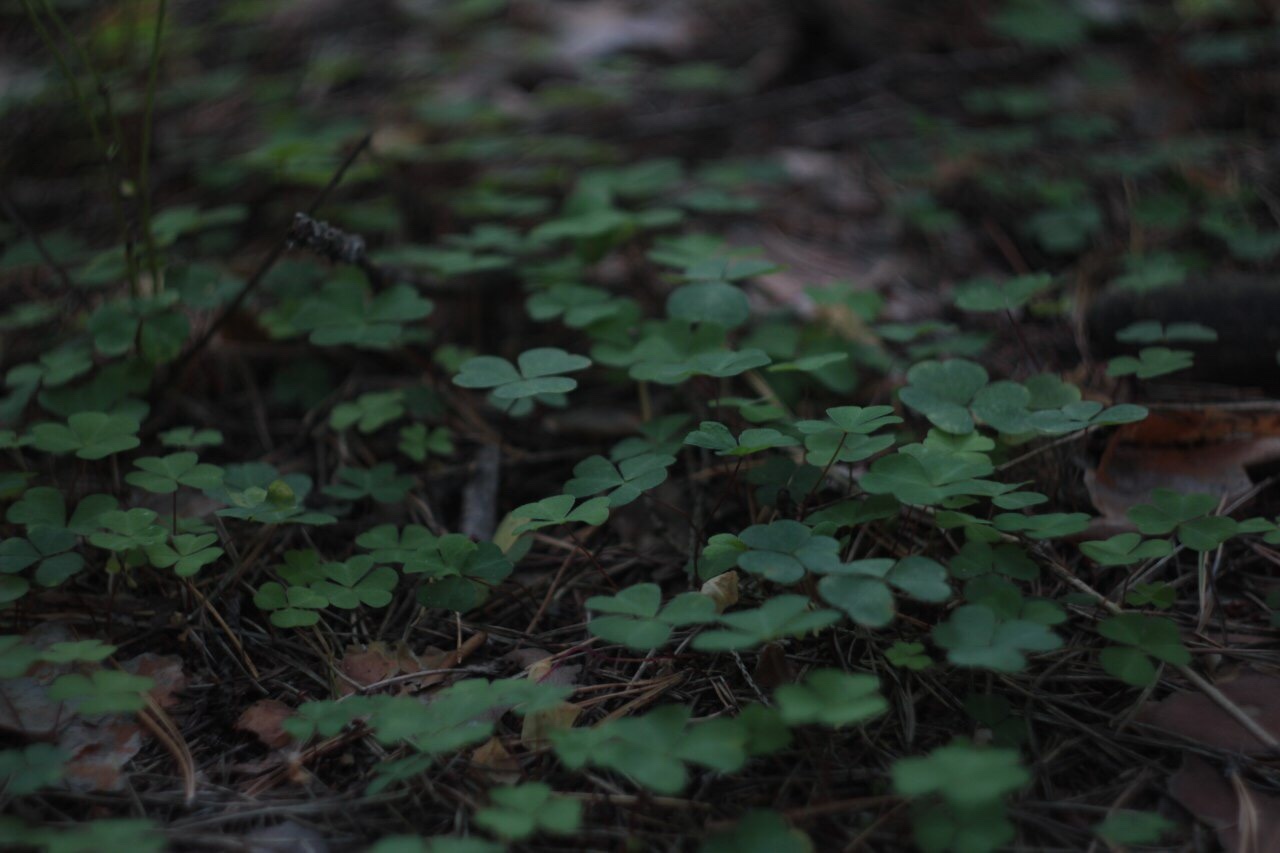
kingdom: Plantae
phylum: Tracheophyta
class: Magnoliopsida
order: Oxalidales
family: Oxalidaceae
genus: Oxalis
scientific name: Oxalis acetosella
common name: Wood-sorrel
